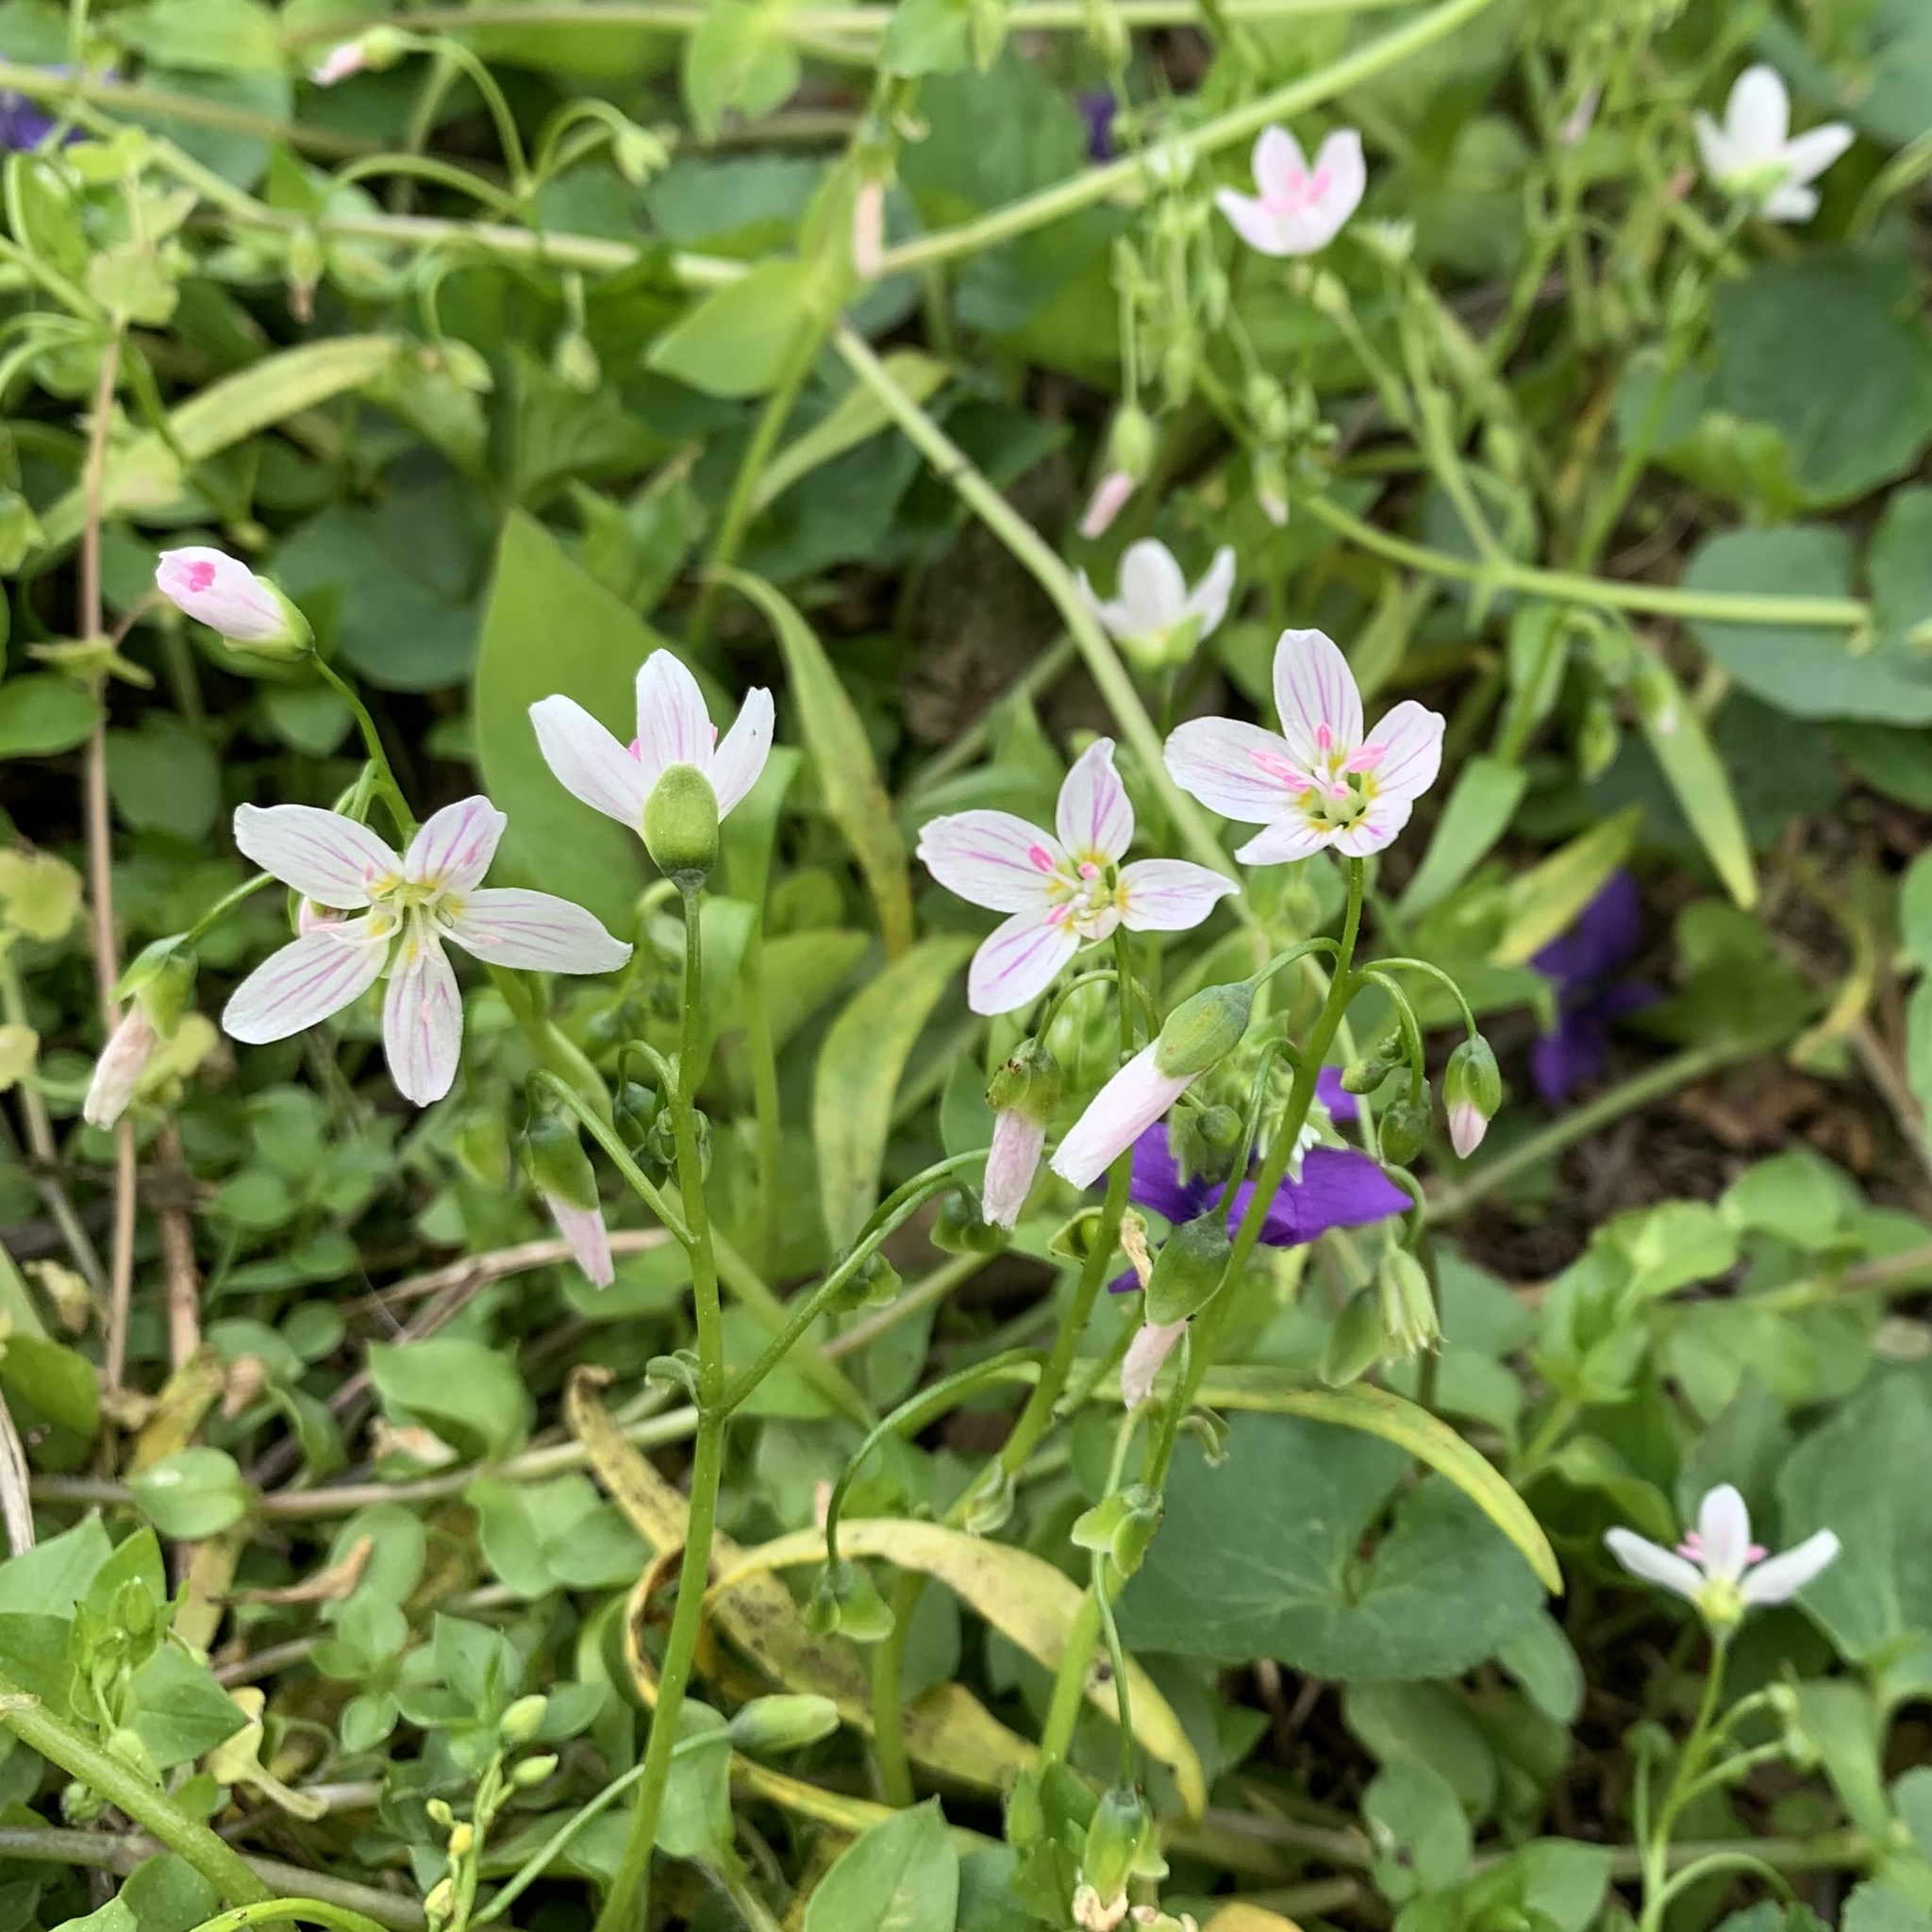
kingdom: Plantae
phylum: Tracheophyta
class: Magnoliopsida
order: Caryophyllales
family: Montiaceae
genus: Claytonia
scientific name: Claytonia virginica
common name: Virginia springbeauty
